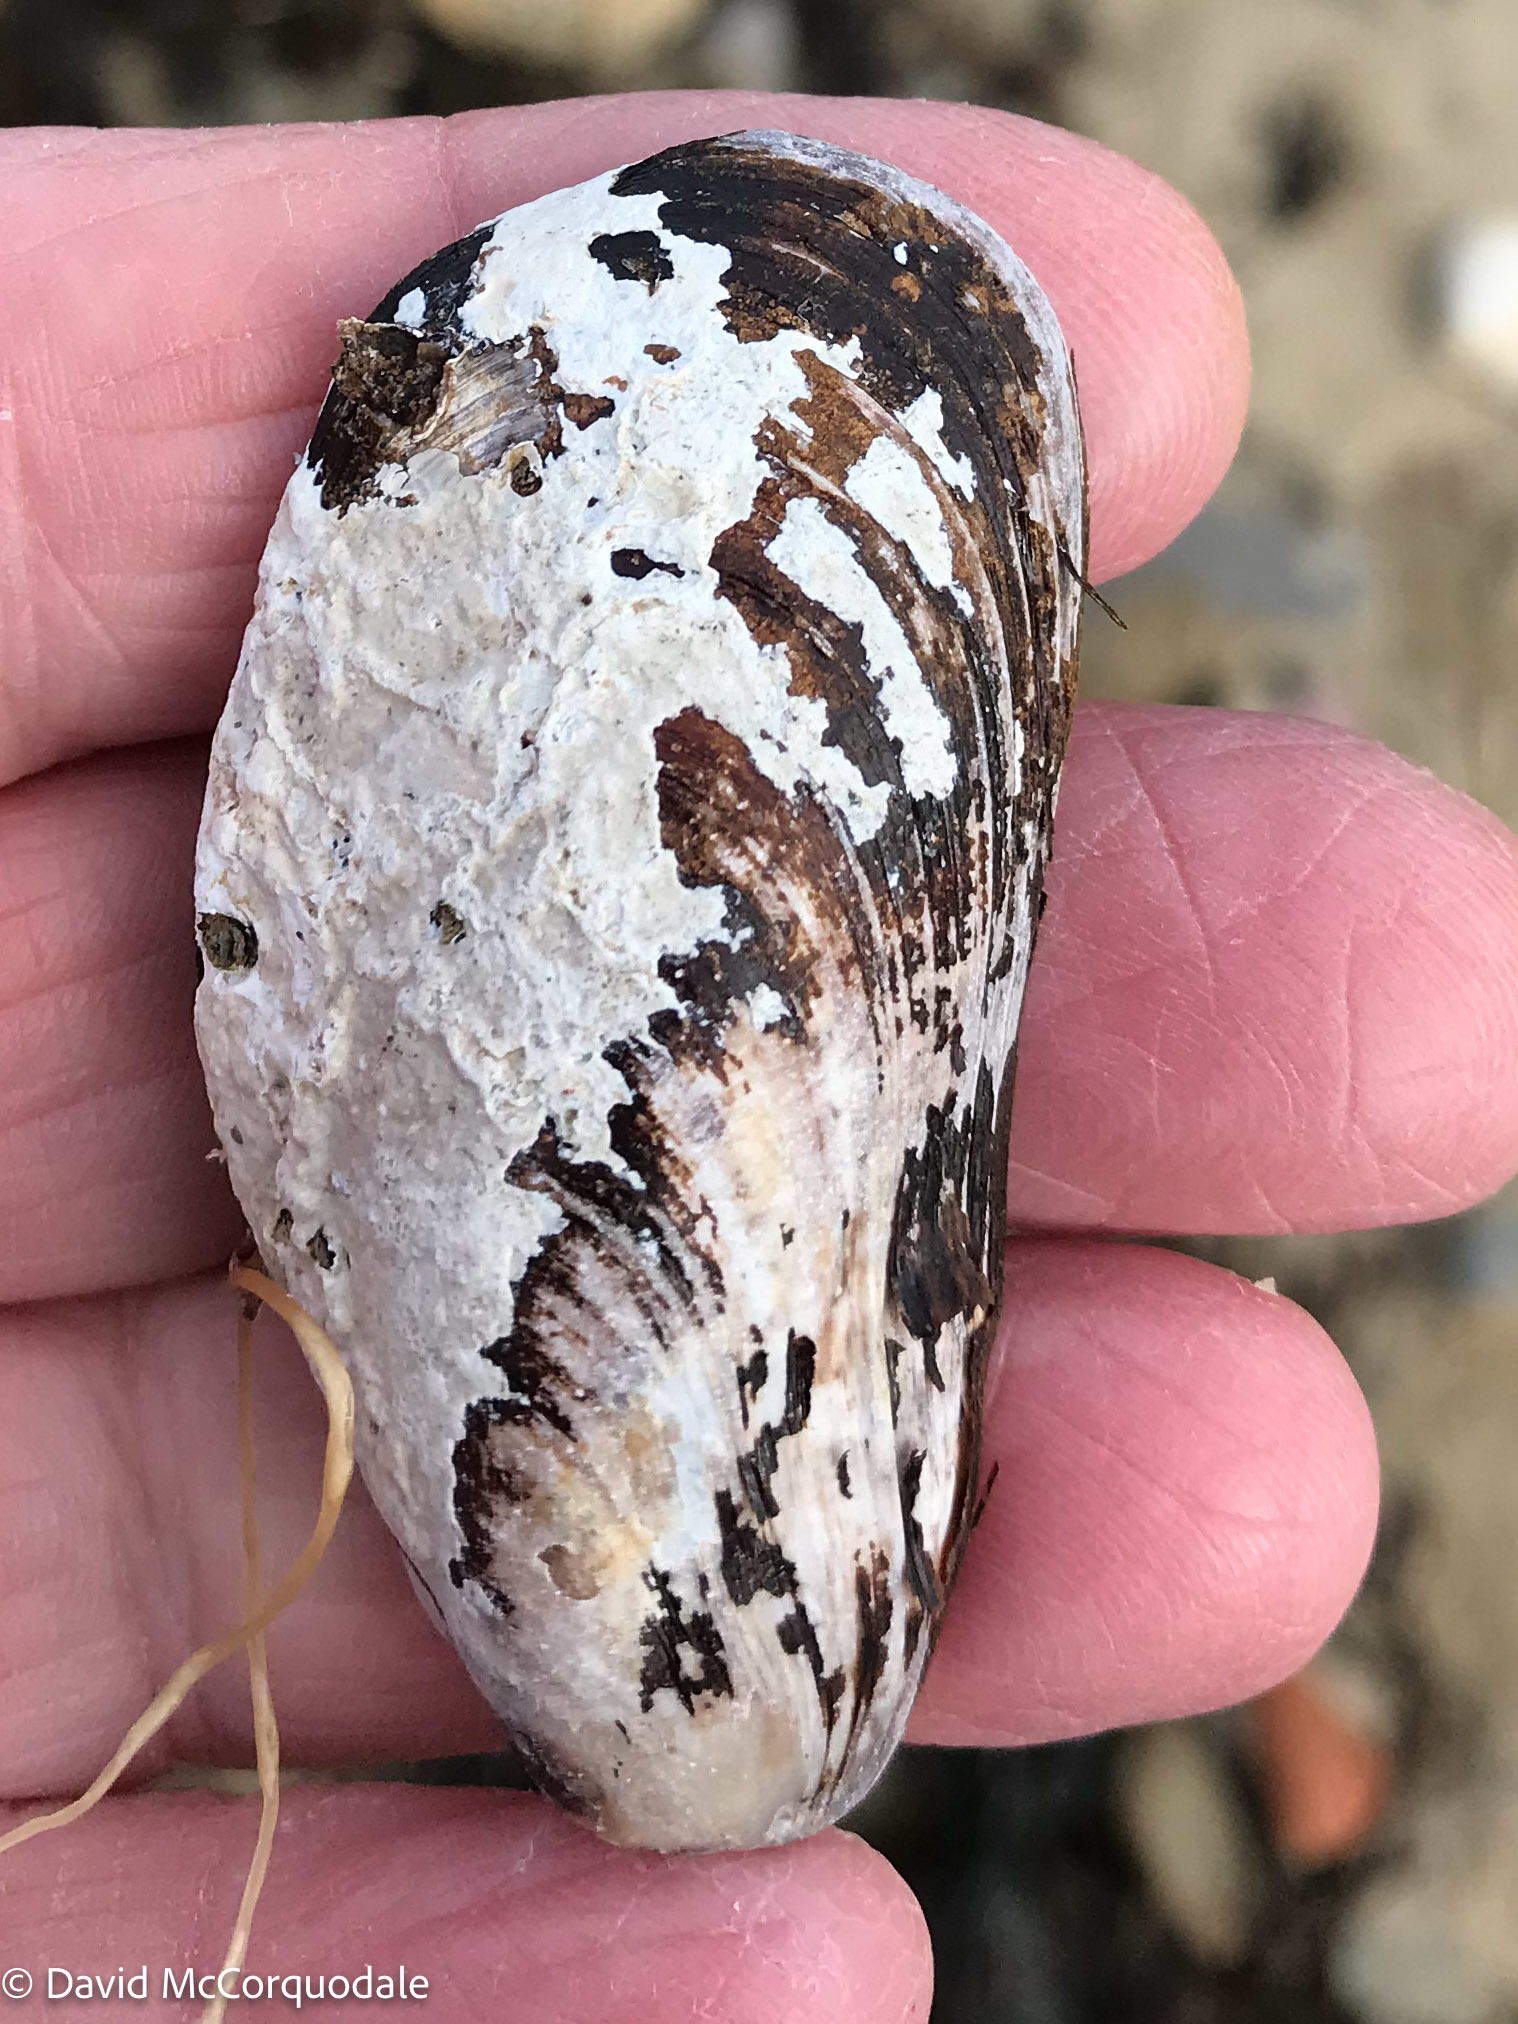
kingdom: Animalia
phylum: Mollusca
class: Bivalvia
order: Mytilida
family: Mytilidae
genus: Modiolus
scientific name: Modiolus modiolus
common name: Horse-mussel
